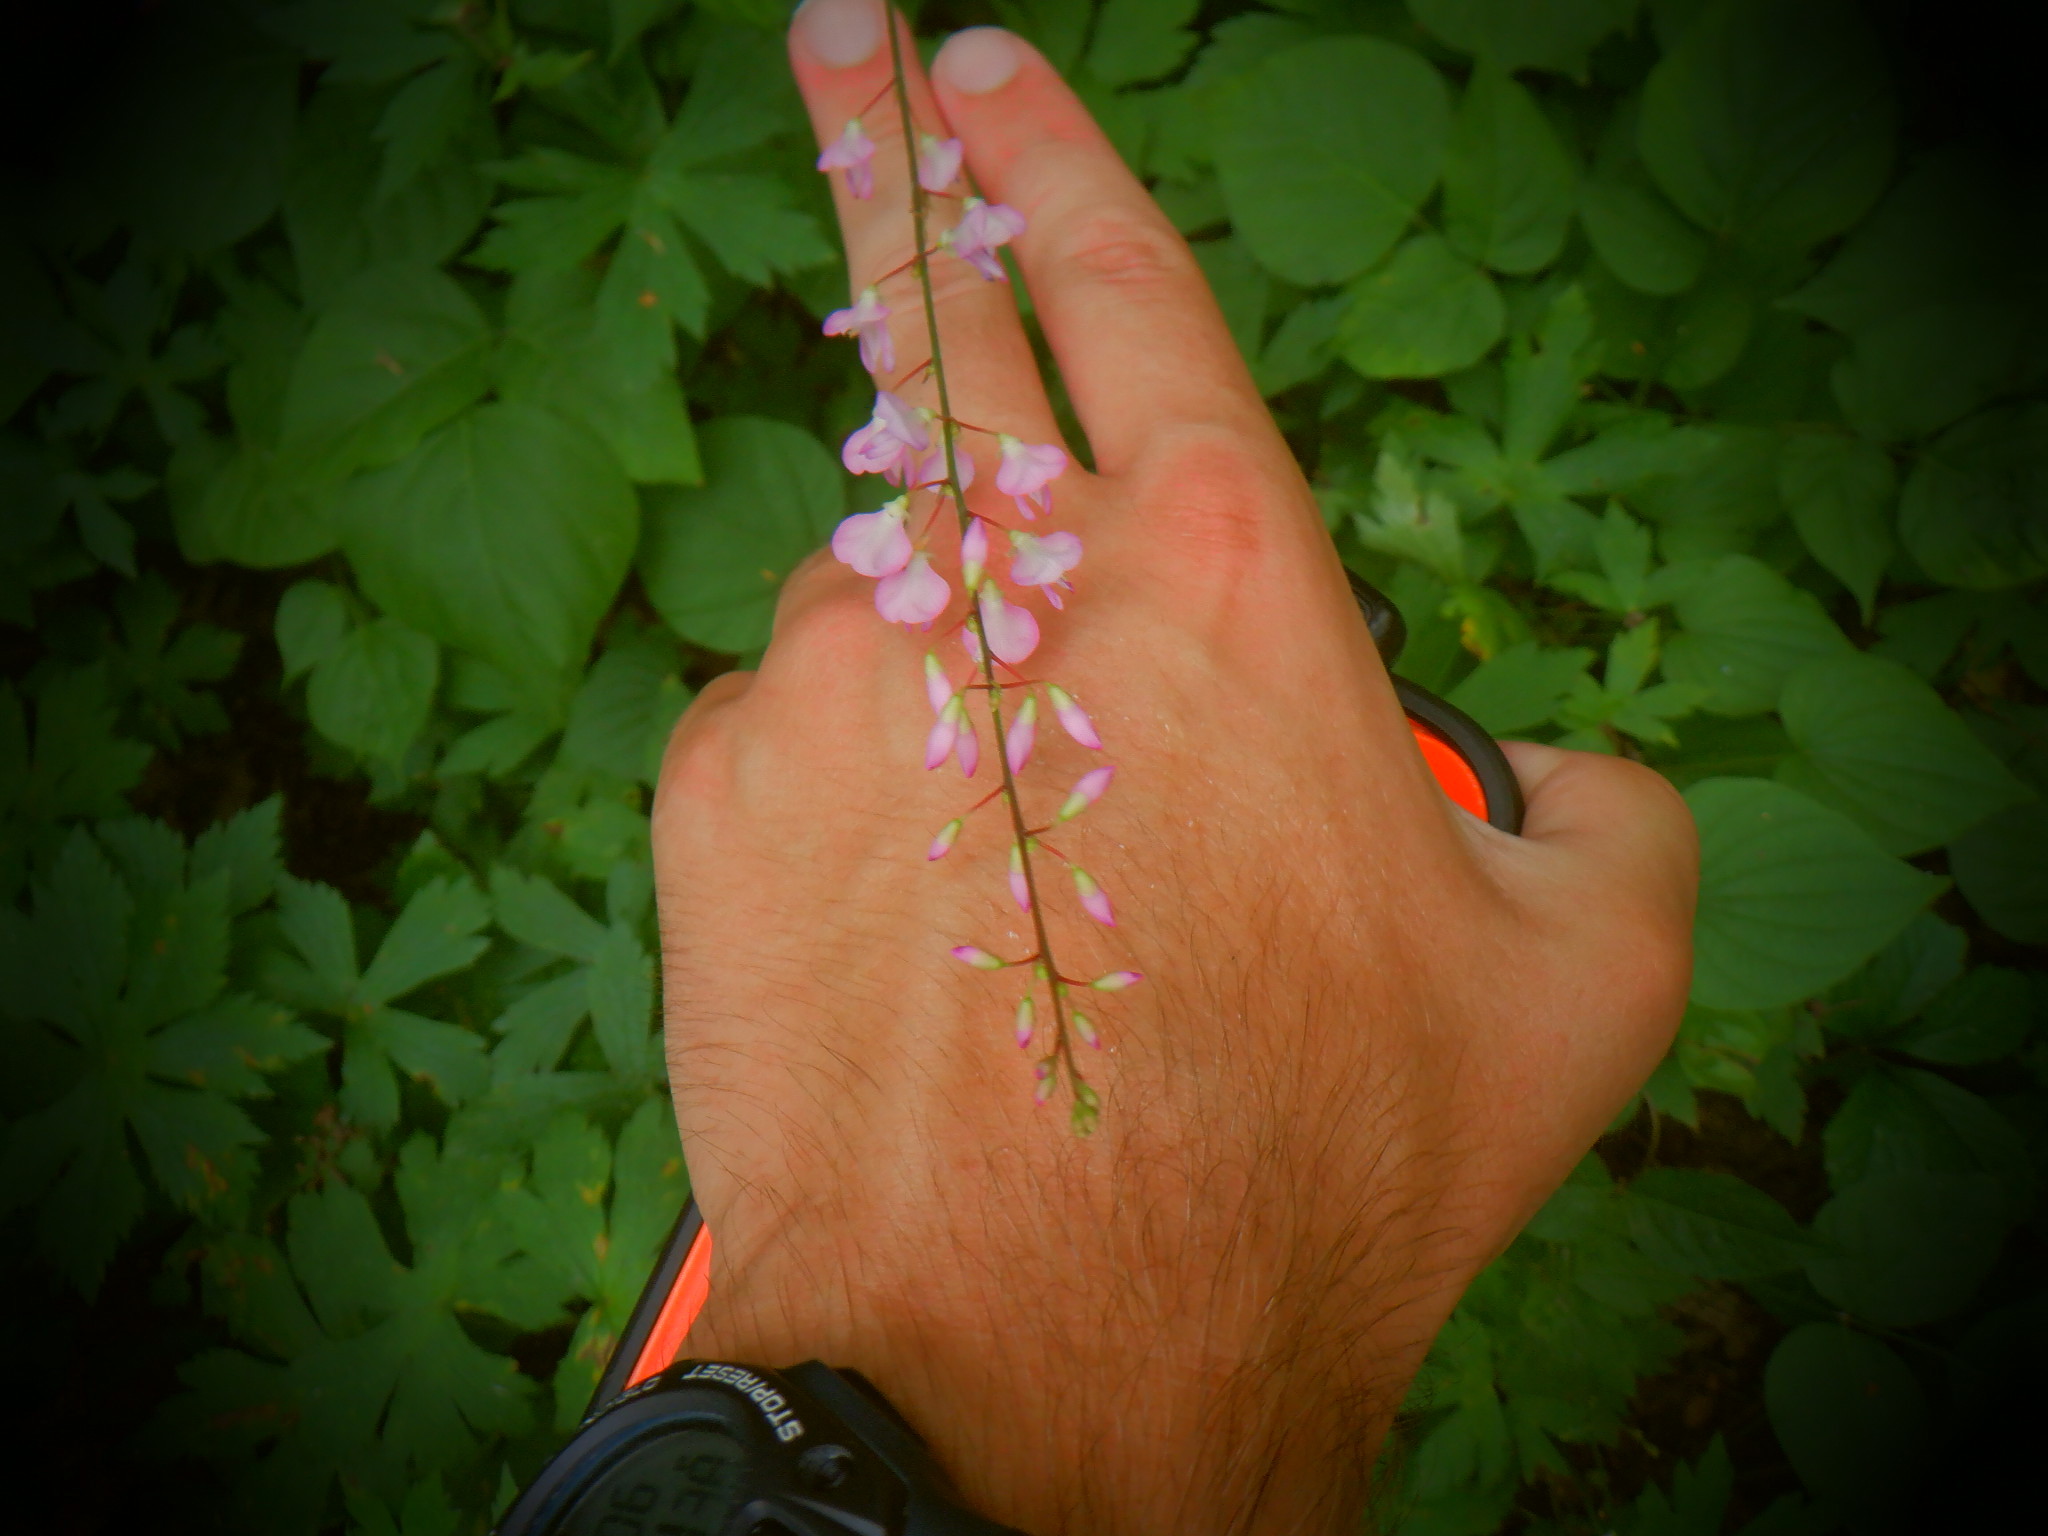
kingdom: Plantae
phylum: Tracheophyta
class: Magnoliopsida
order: Fabales
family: Fabaceae
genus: Hylodesmum
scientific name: Hylodesmum glutinosum
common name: Clustered-leaved tick-trefoil
